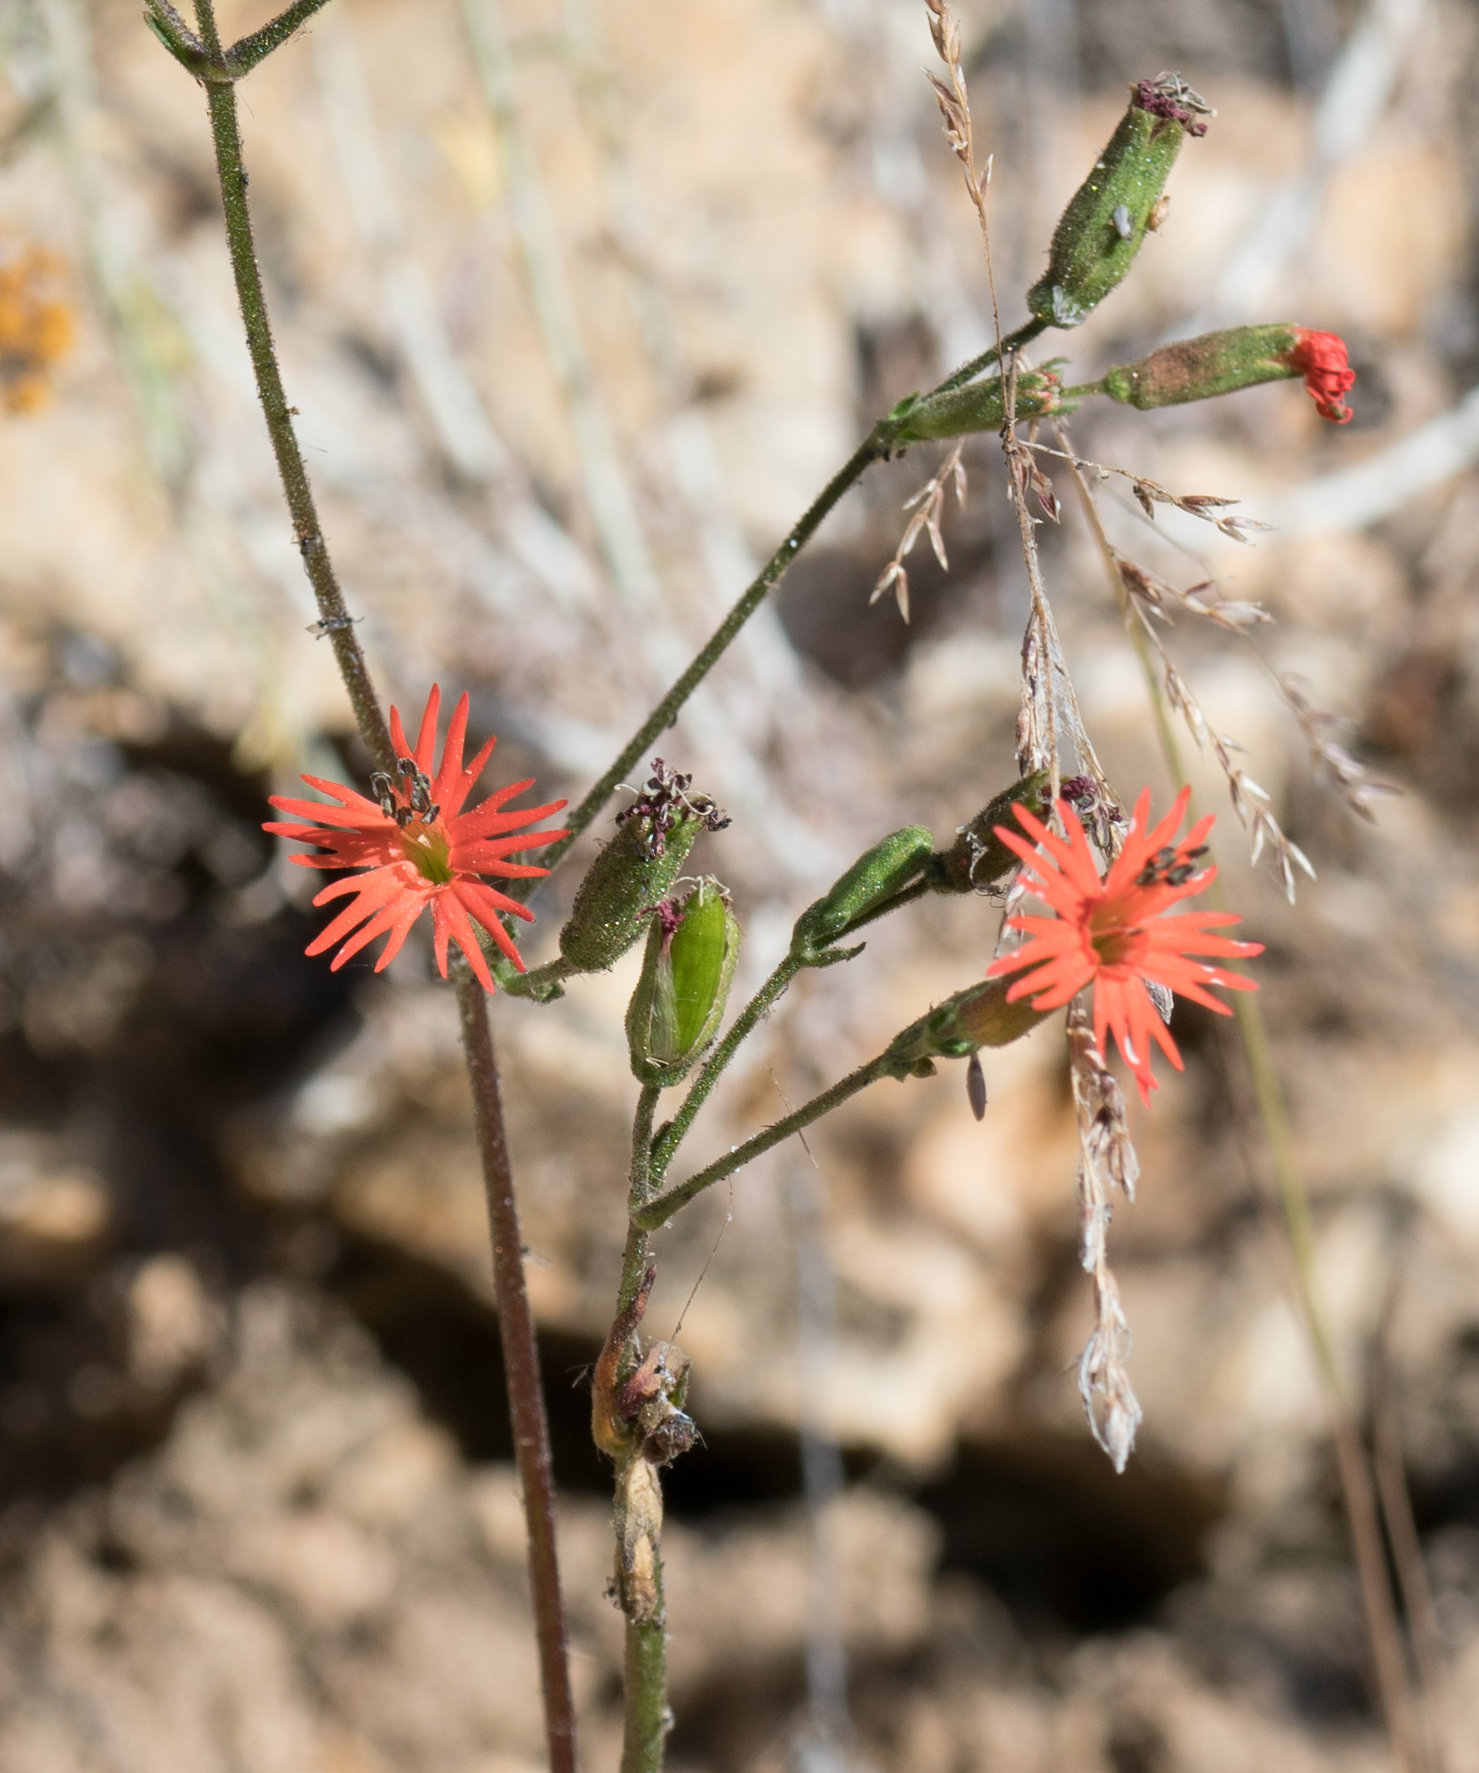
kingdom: Plantae
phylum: Tracheophyta
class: Magnoliopsida
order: Caryophyllales
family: Caryophyllaceae
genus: Silene
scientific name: Silene laciniata
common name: Indian-pink
